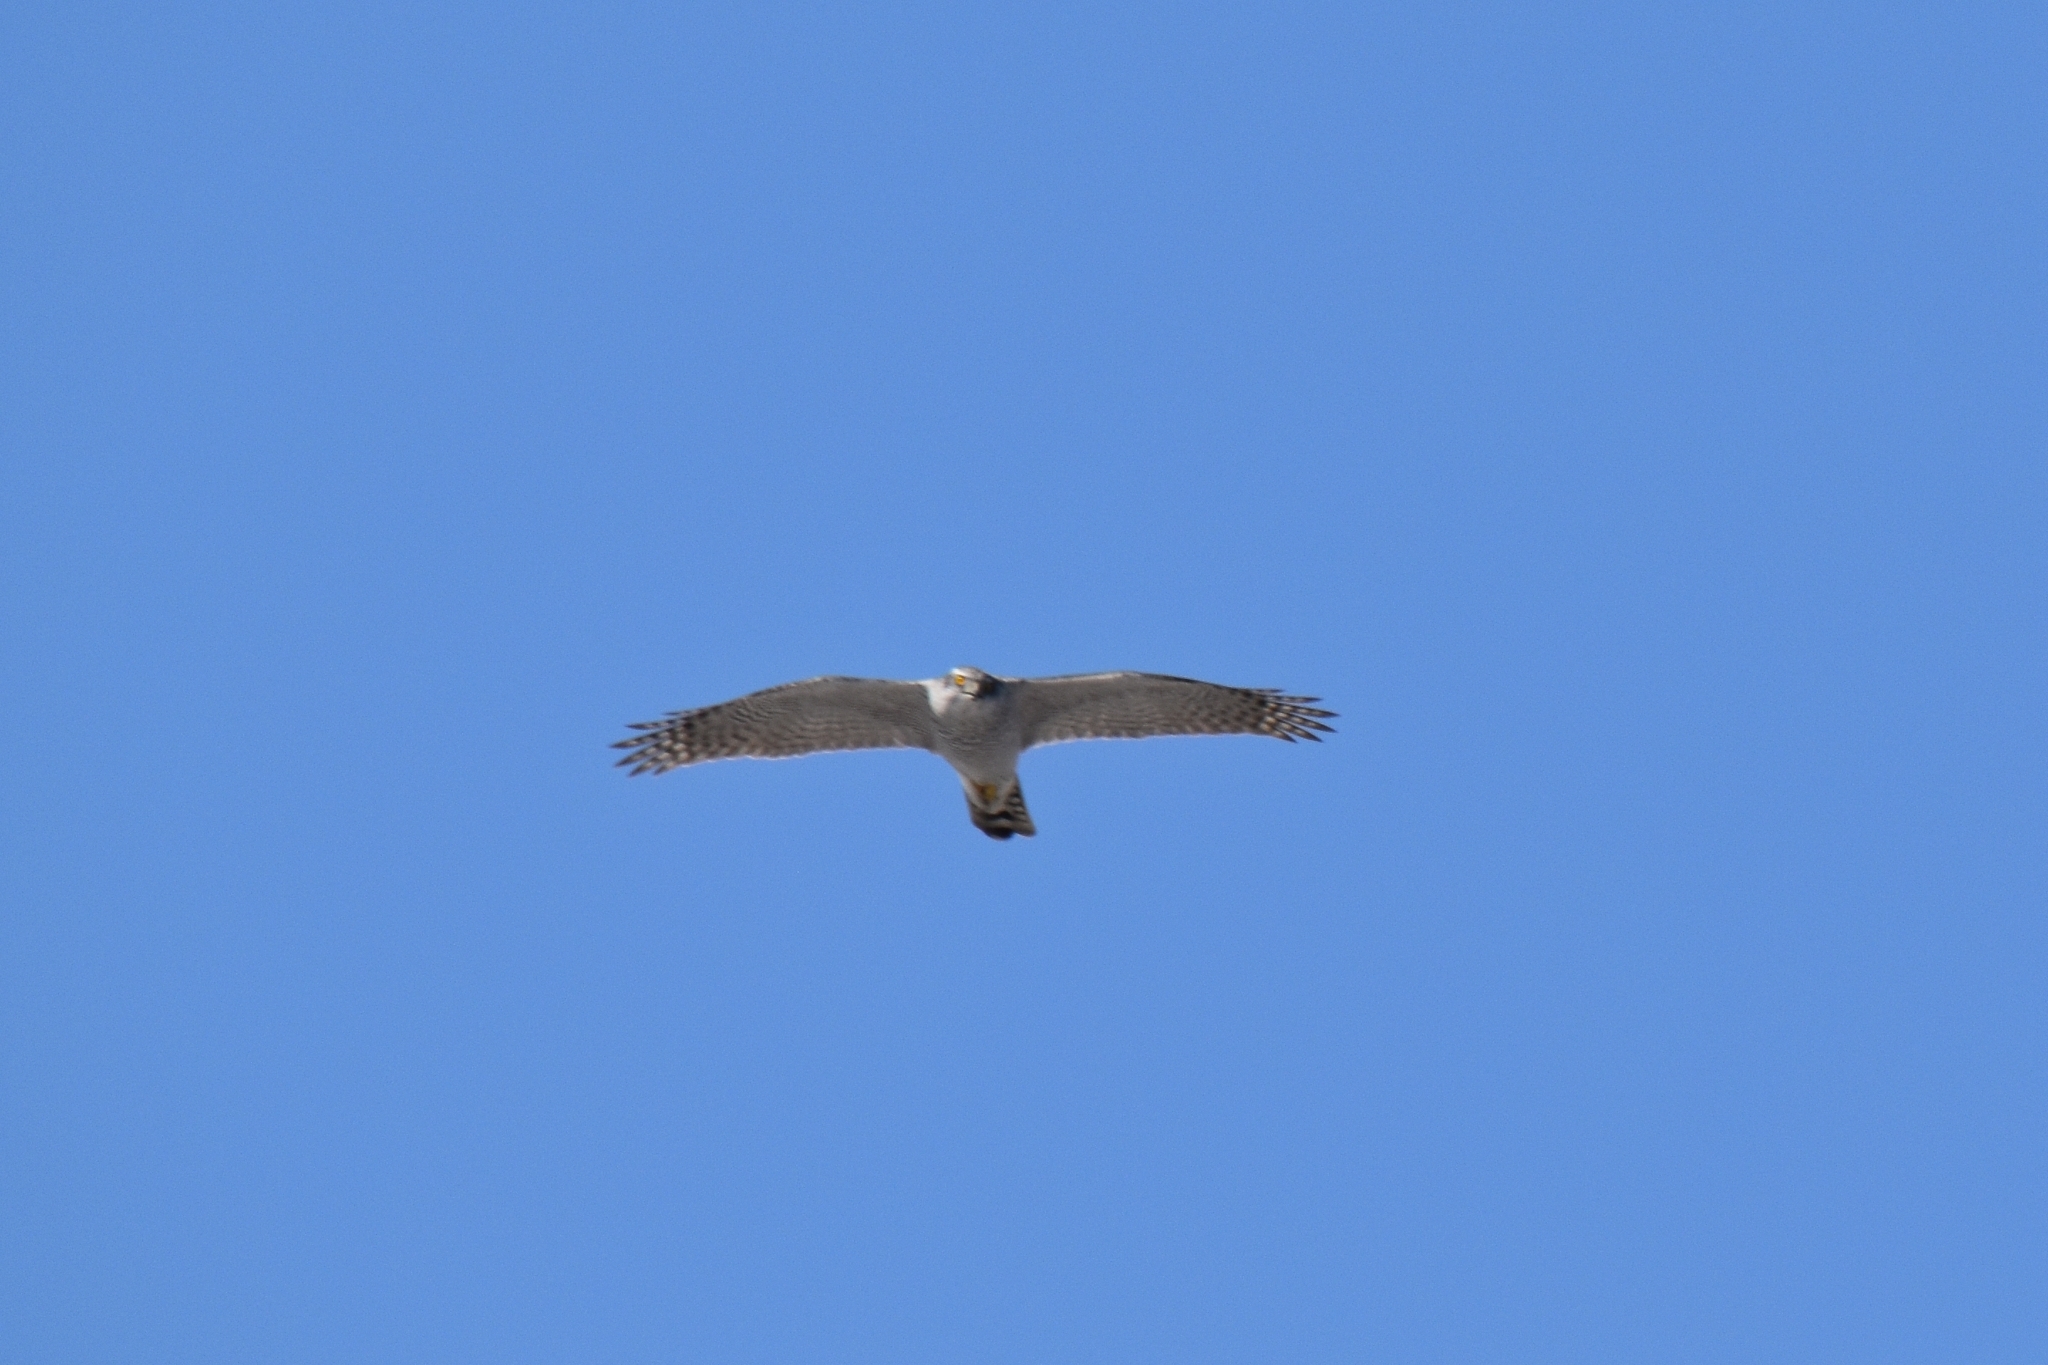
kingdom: Animalia
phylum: Chordata
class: Aves
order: Accipitriformes
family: Accipitridae
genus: Accipiter
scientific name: Accipiter gentilis
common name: Northern goshawk
